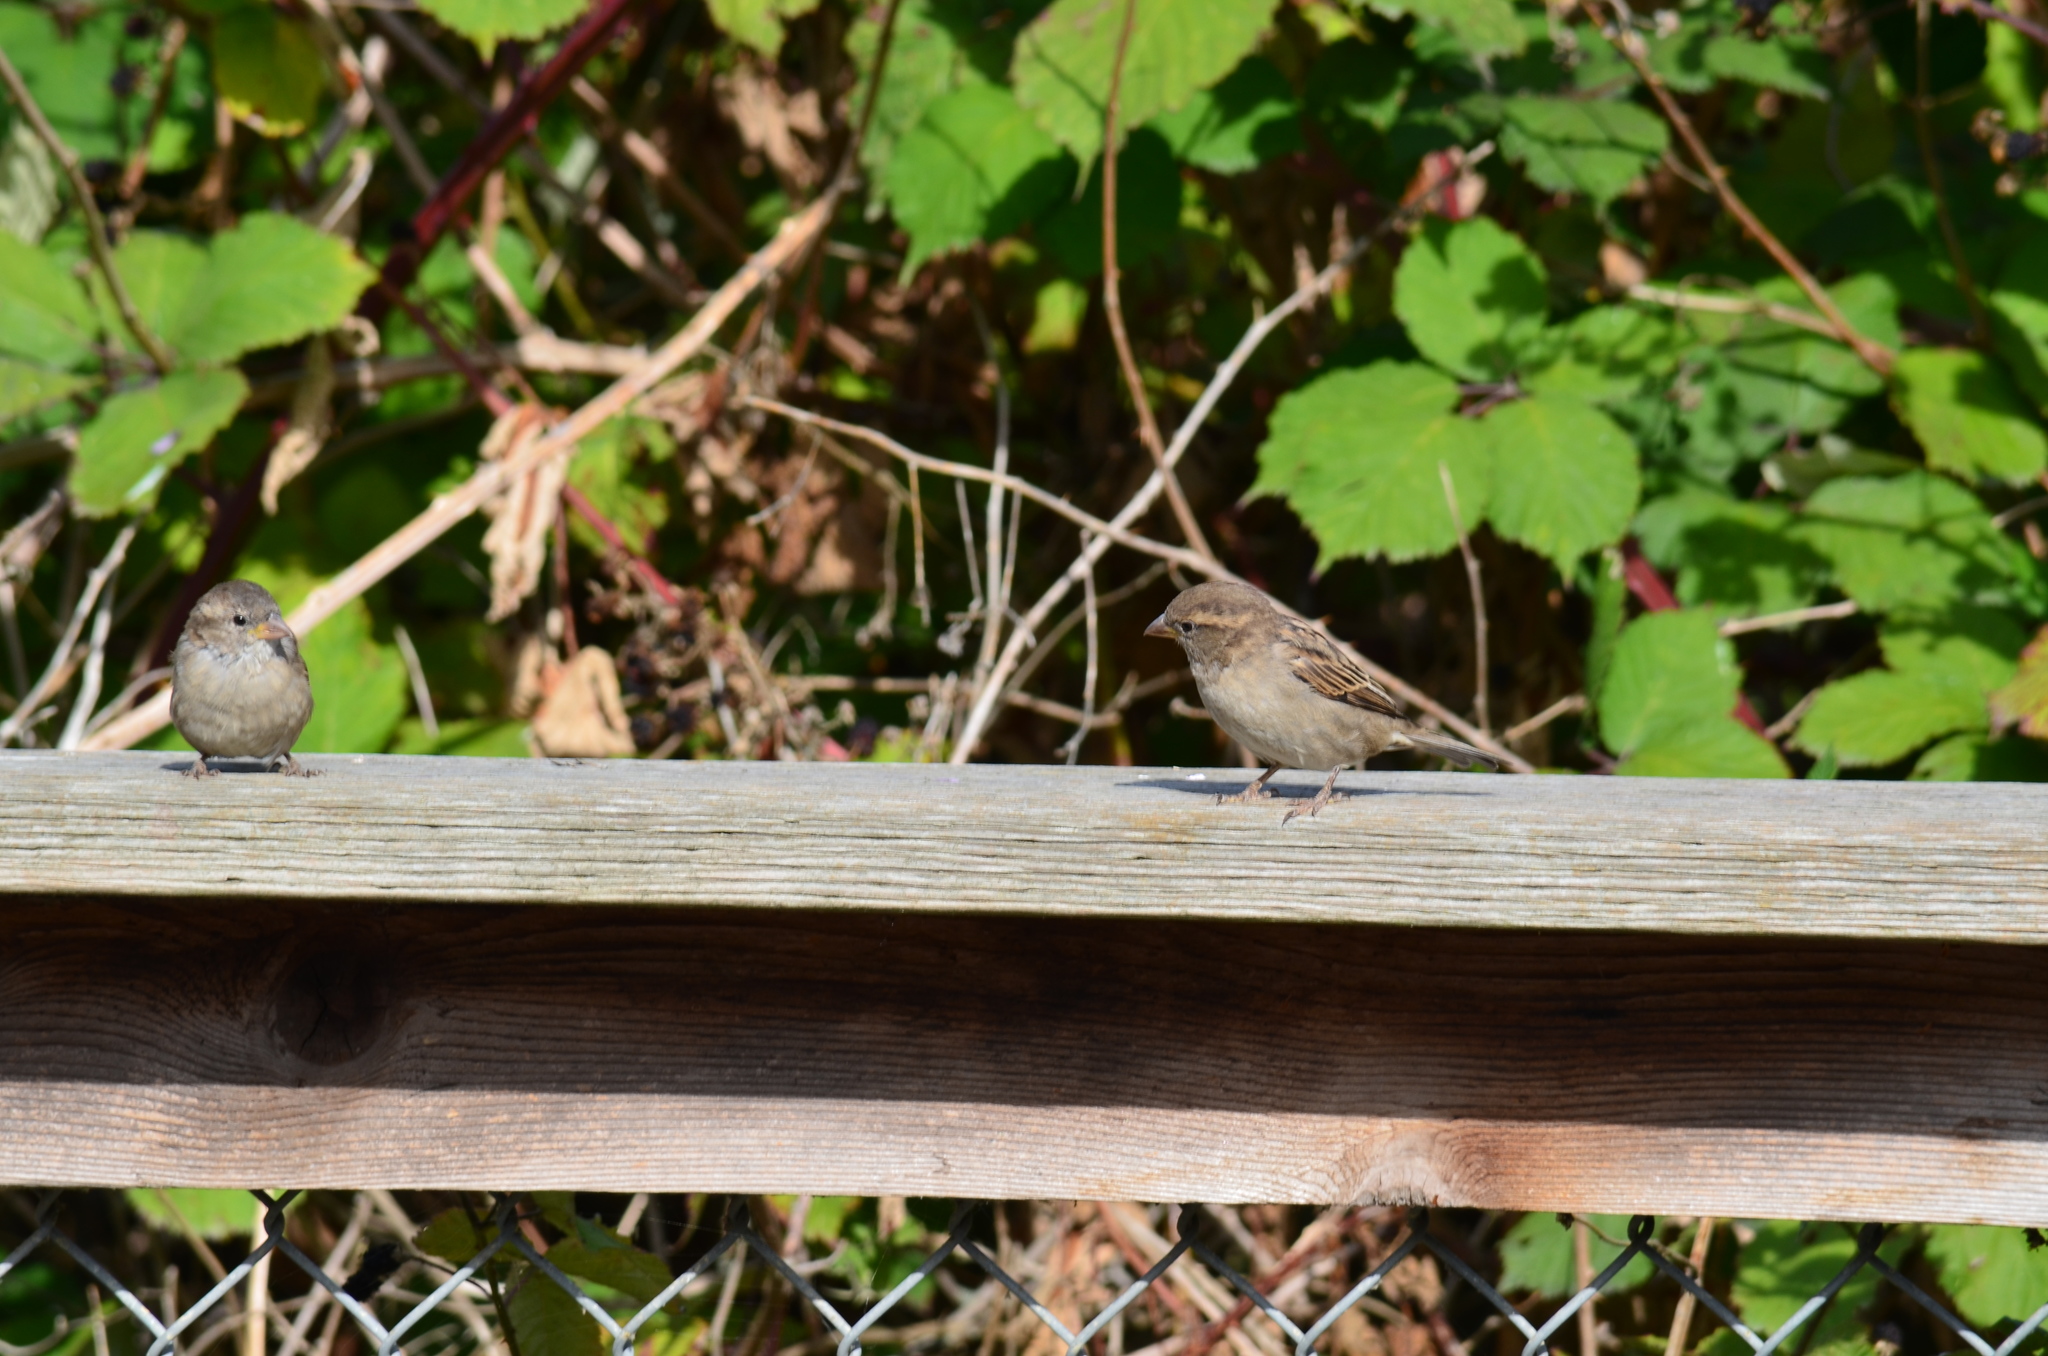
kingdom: Animalia
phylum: Chordata
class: Aves
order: Passeriformes
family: Passeridae
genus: Passer
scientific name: Passer domesticus
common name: House sparrow
